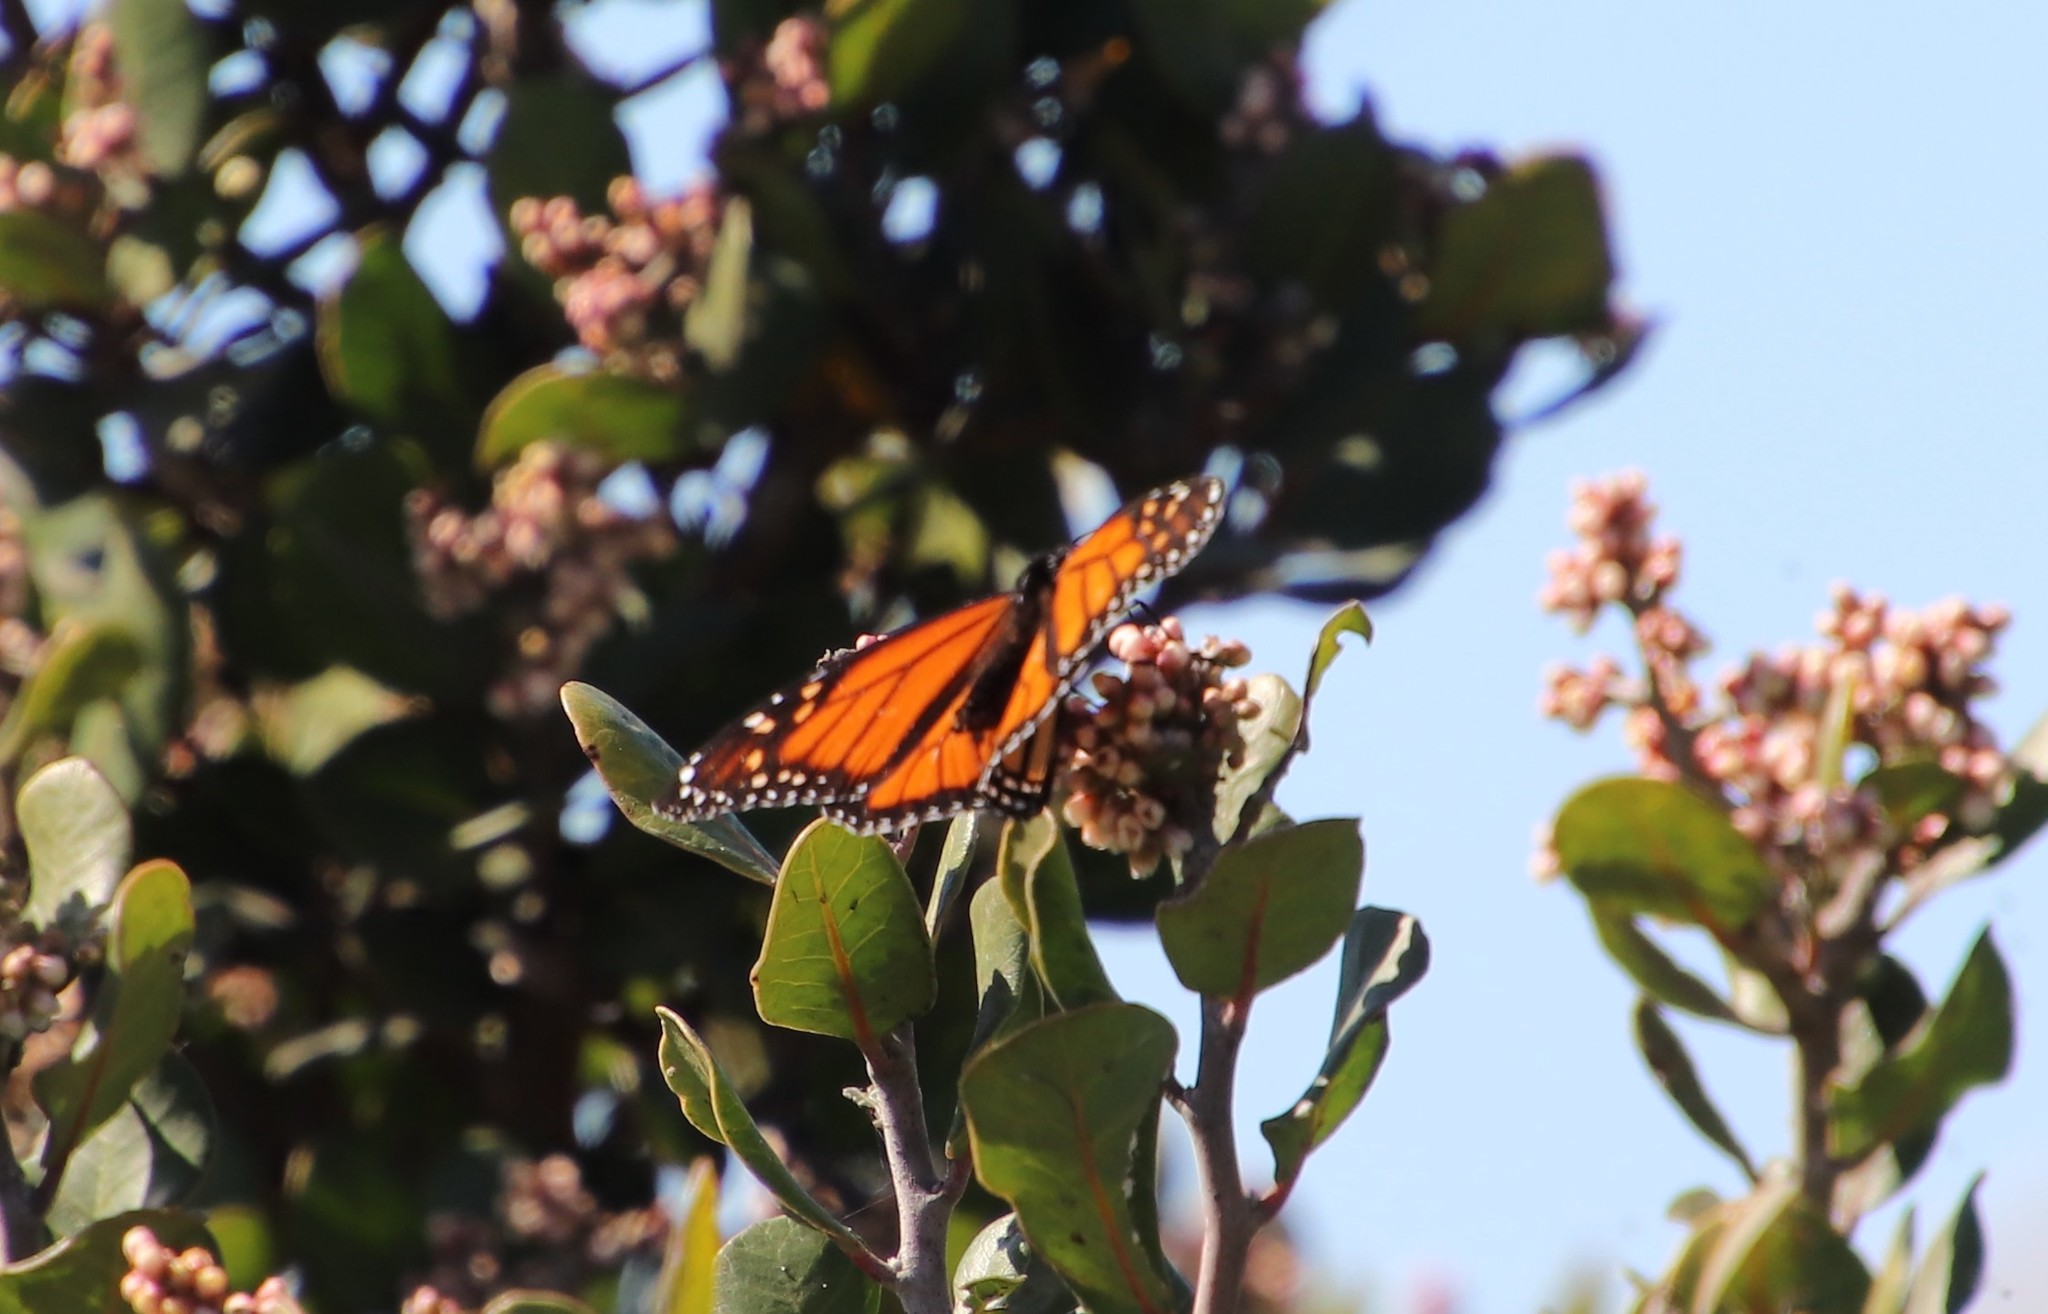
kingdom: Animalia
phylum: Arthropoda
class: Insecta
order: Lepidoptera
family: Nymphalidae
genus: Danaus
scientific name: Danaus plexippus
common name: Monarch
